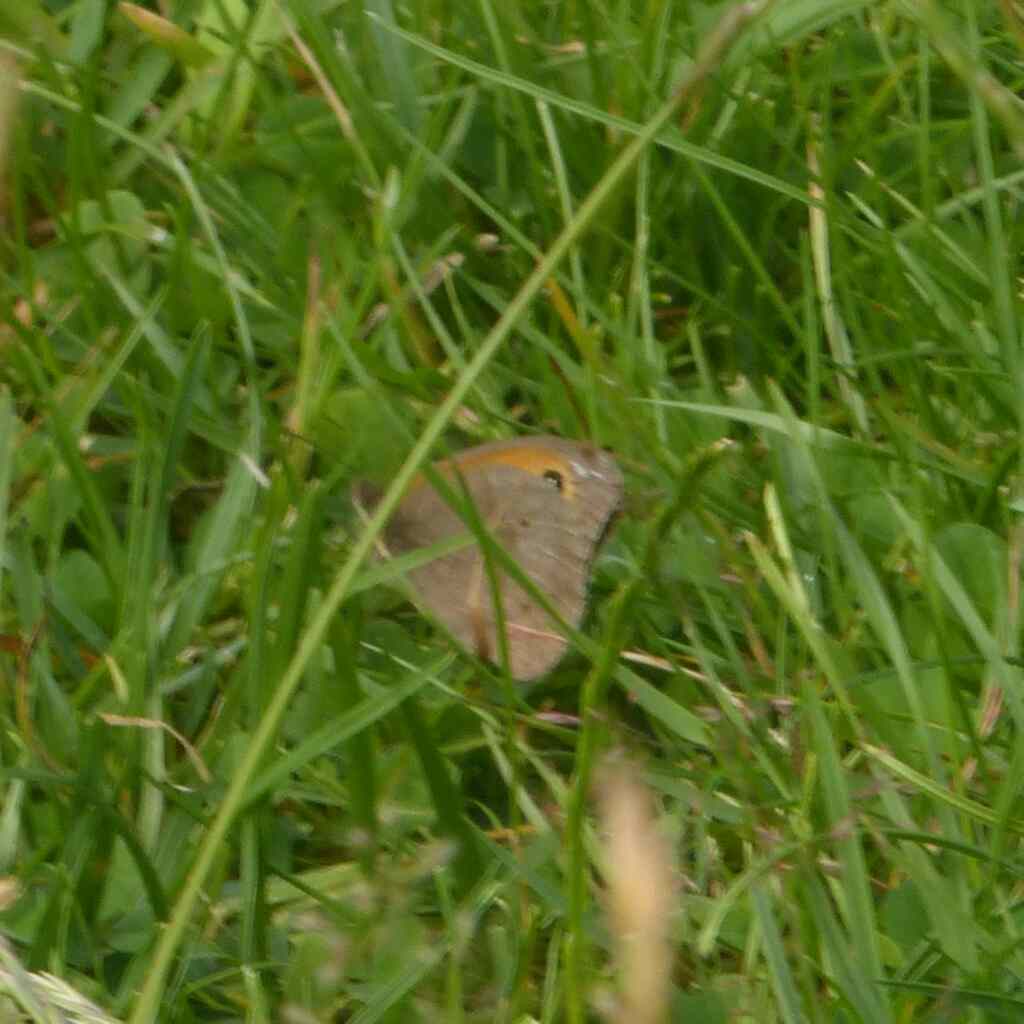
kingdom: Animalia
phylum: Arthropoda
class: Insecta
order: Lepidoptera
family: Nymphalidae
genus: Maniola
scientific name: Maniola jurtina
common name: Meadow brown
